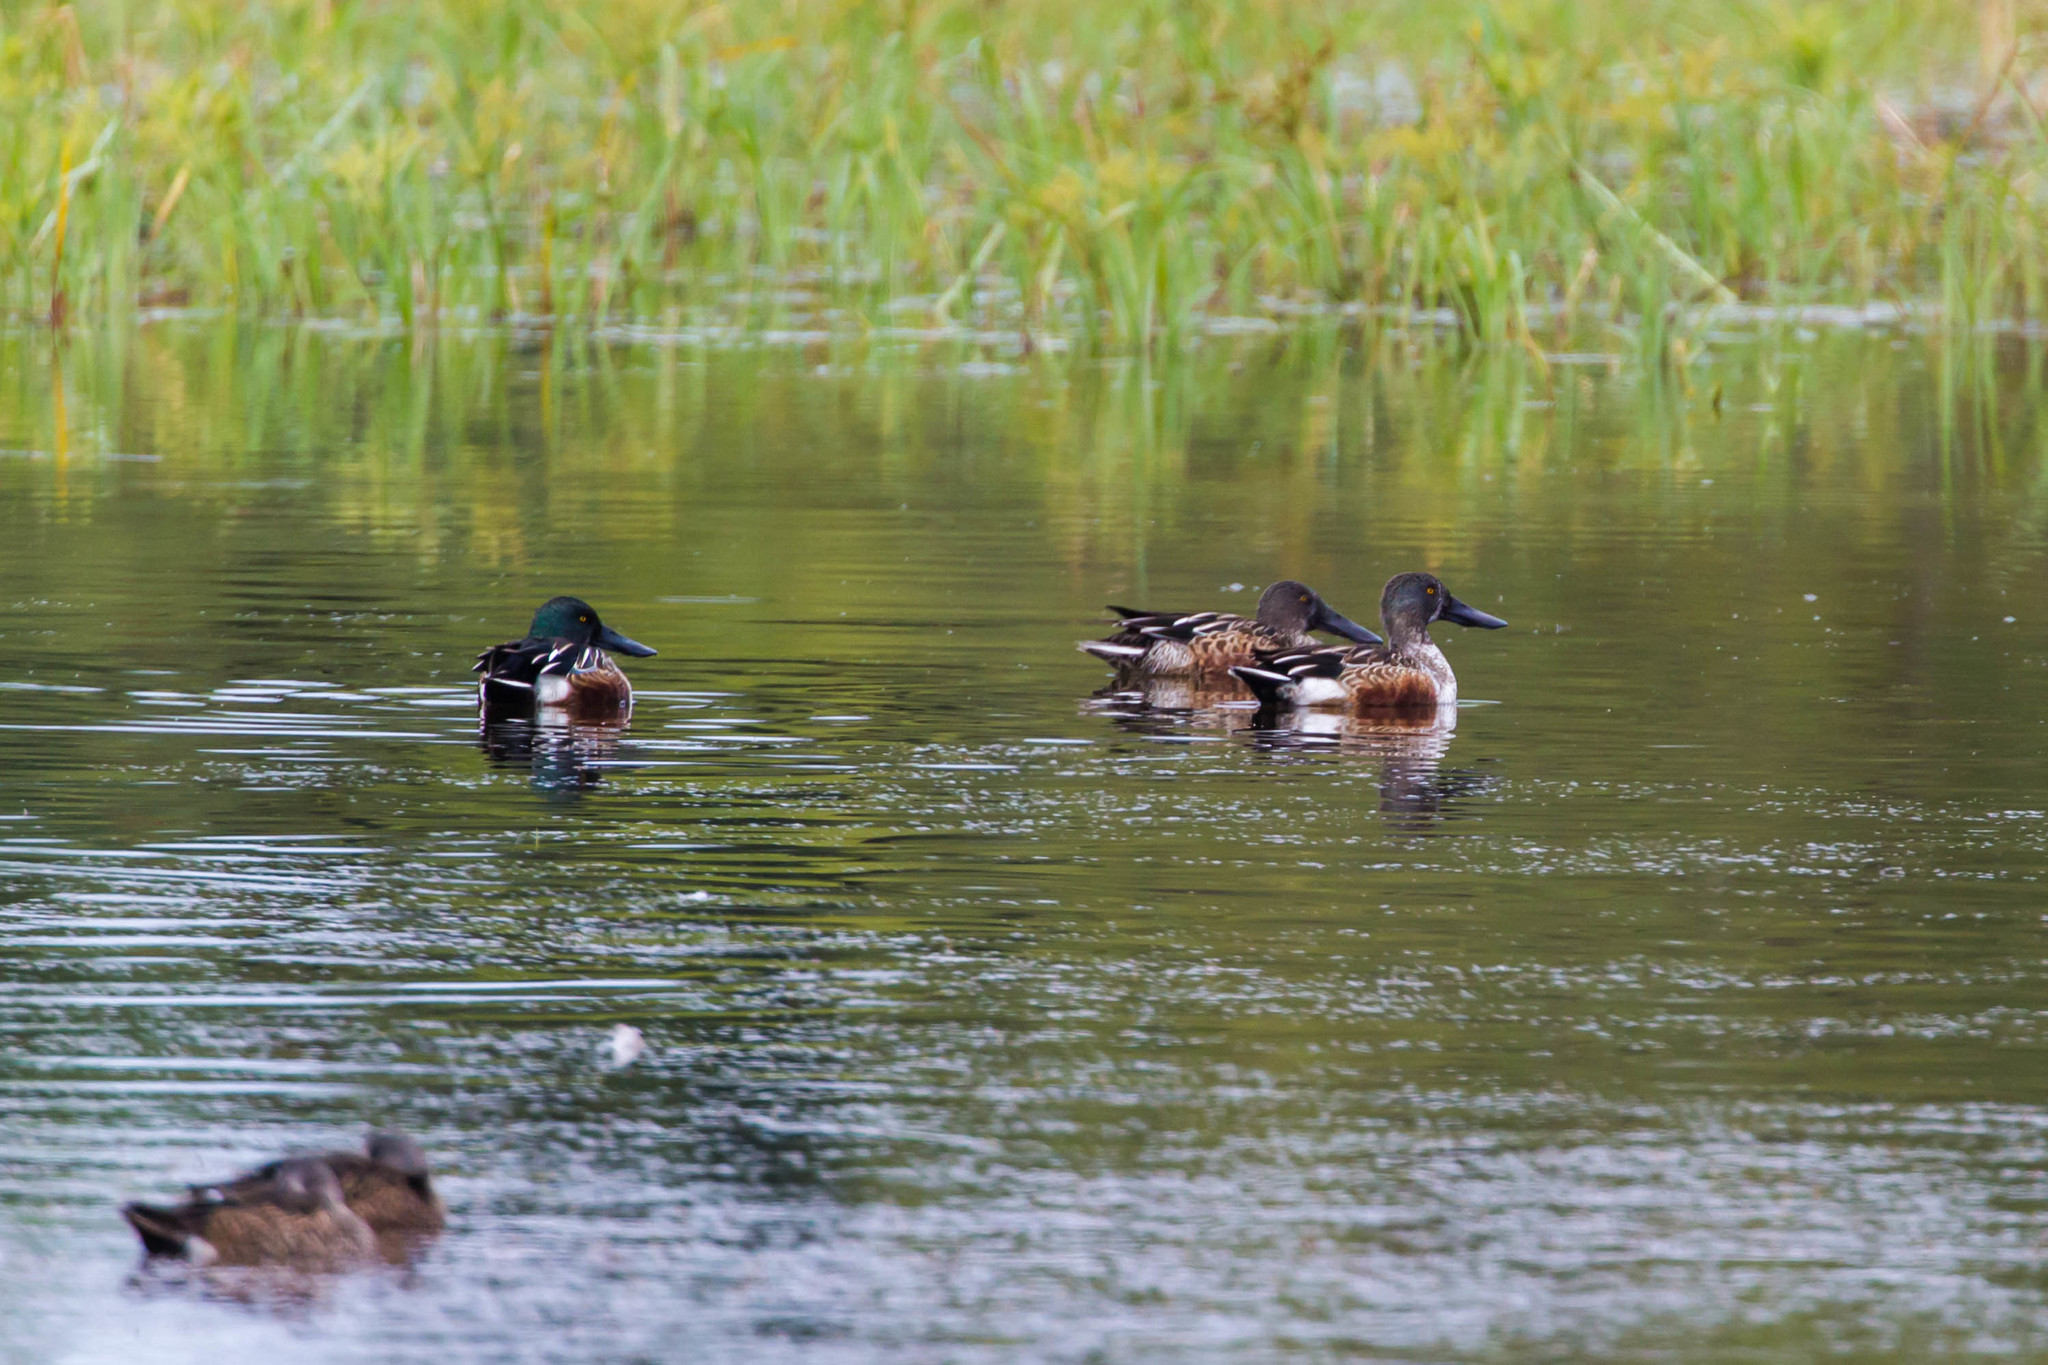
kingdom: Animalia
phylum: Chordata
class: Aves
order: Anseriformes
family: Anatidae
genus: Spatula
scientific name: Spatula clypeata
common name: Northern shoveler
